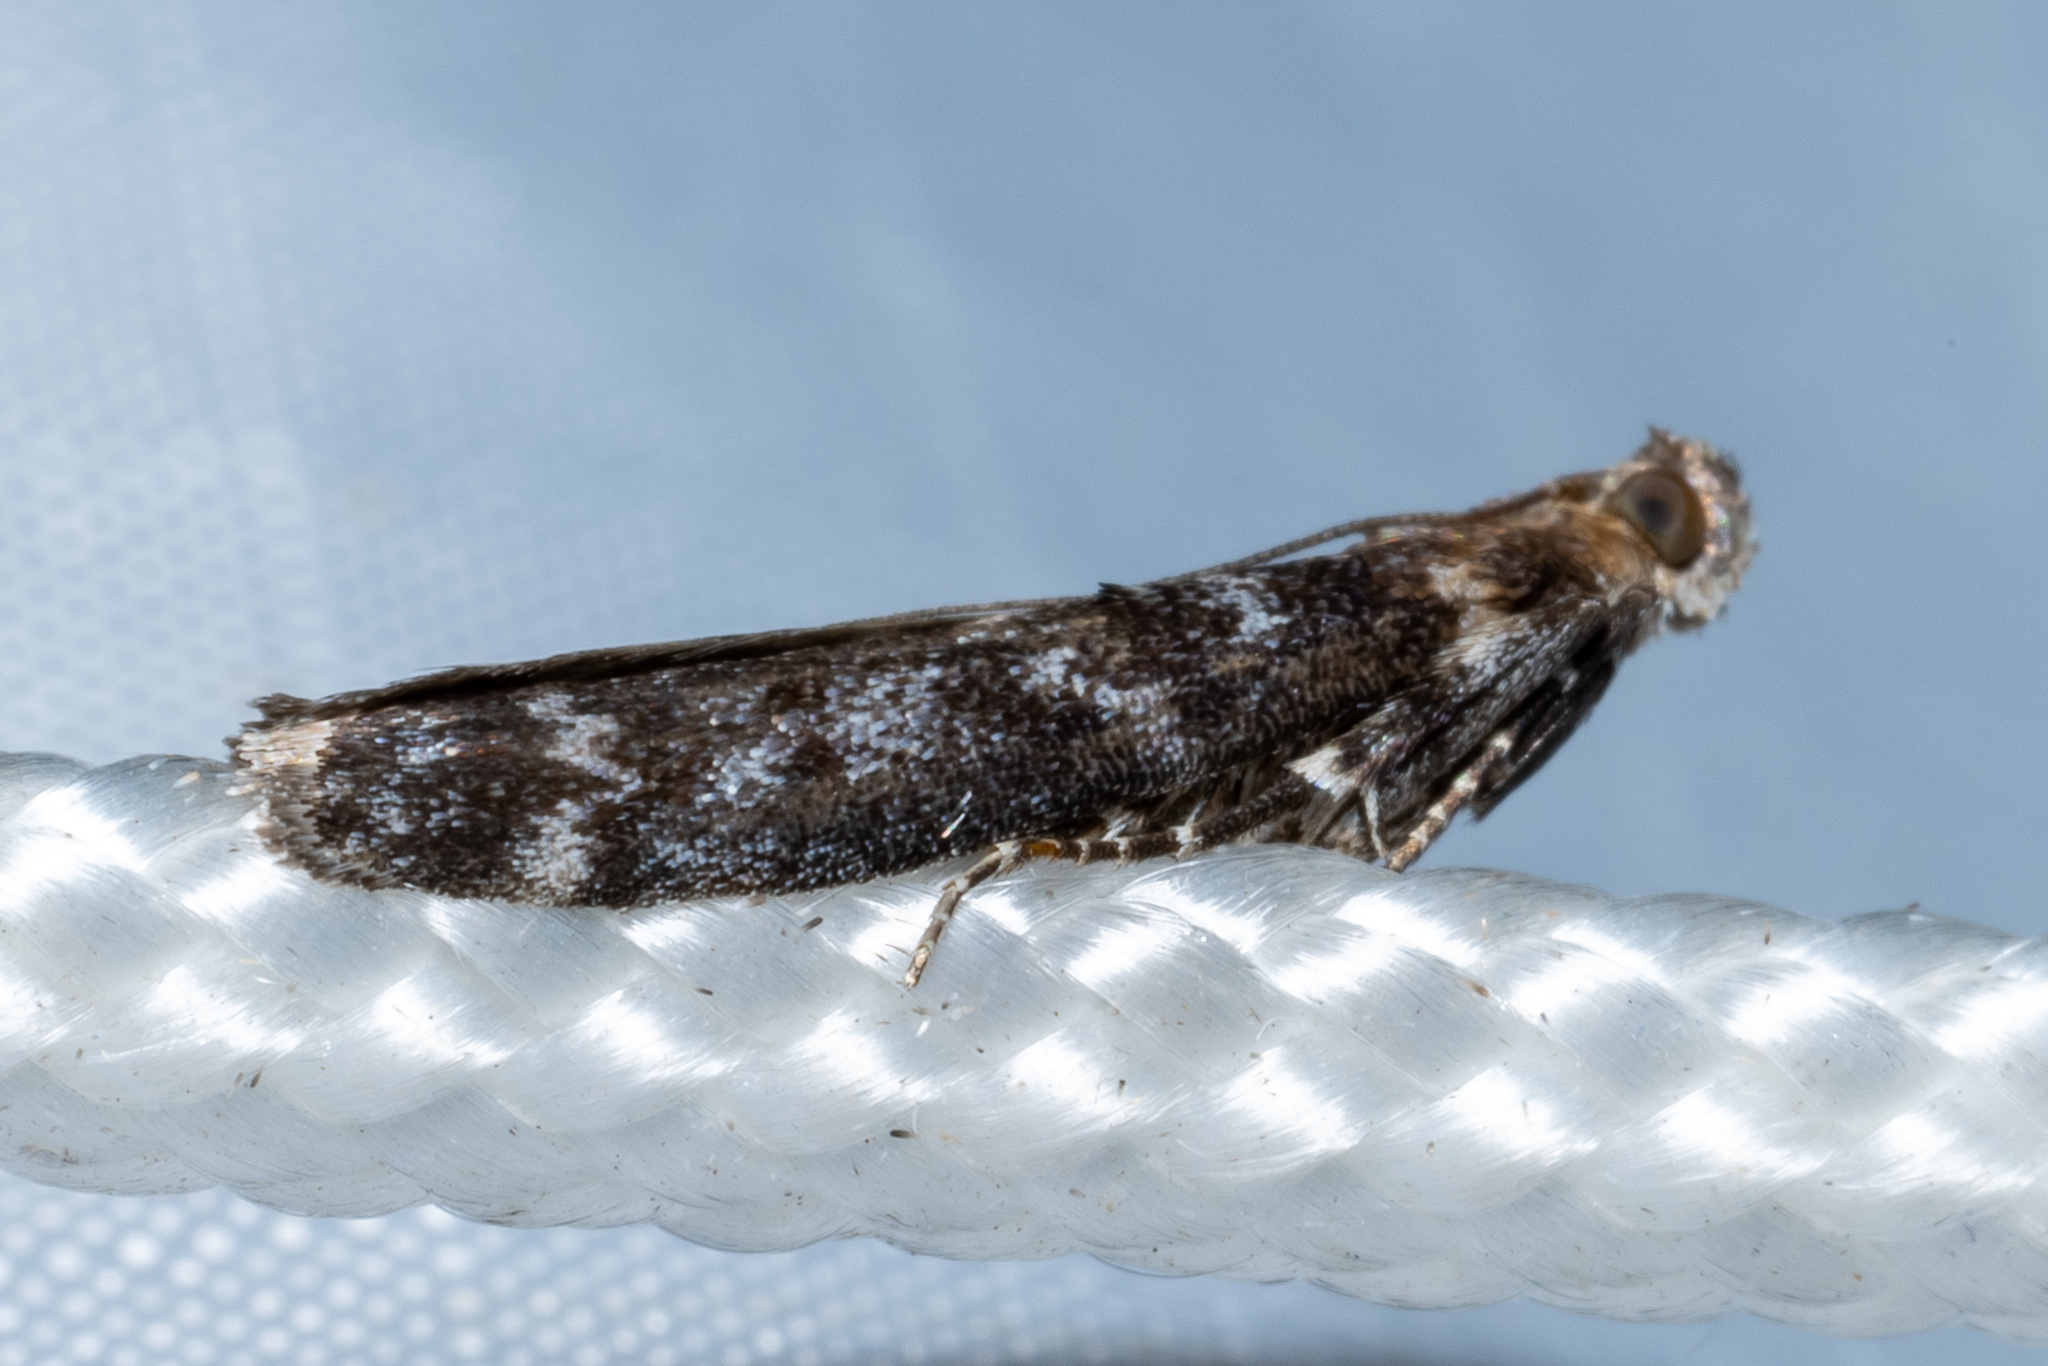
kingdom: Animalia
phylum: Arthropoda
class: Insecta
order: Lepidoptera
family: Pyralidae
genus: Ortholepis
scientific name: Ortholepis pasadamia
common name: Striped birch pyralid moth
